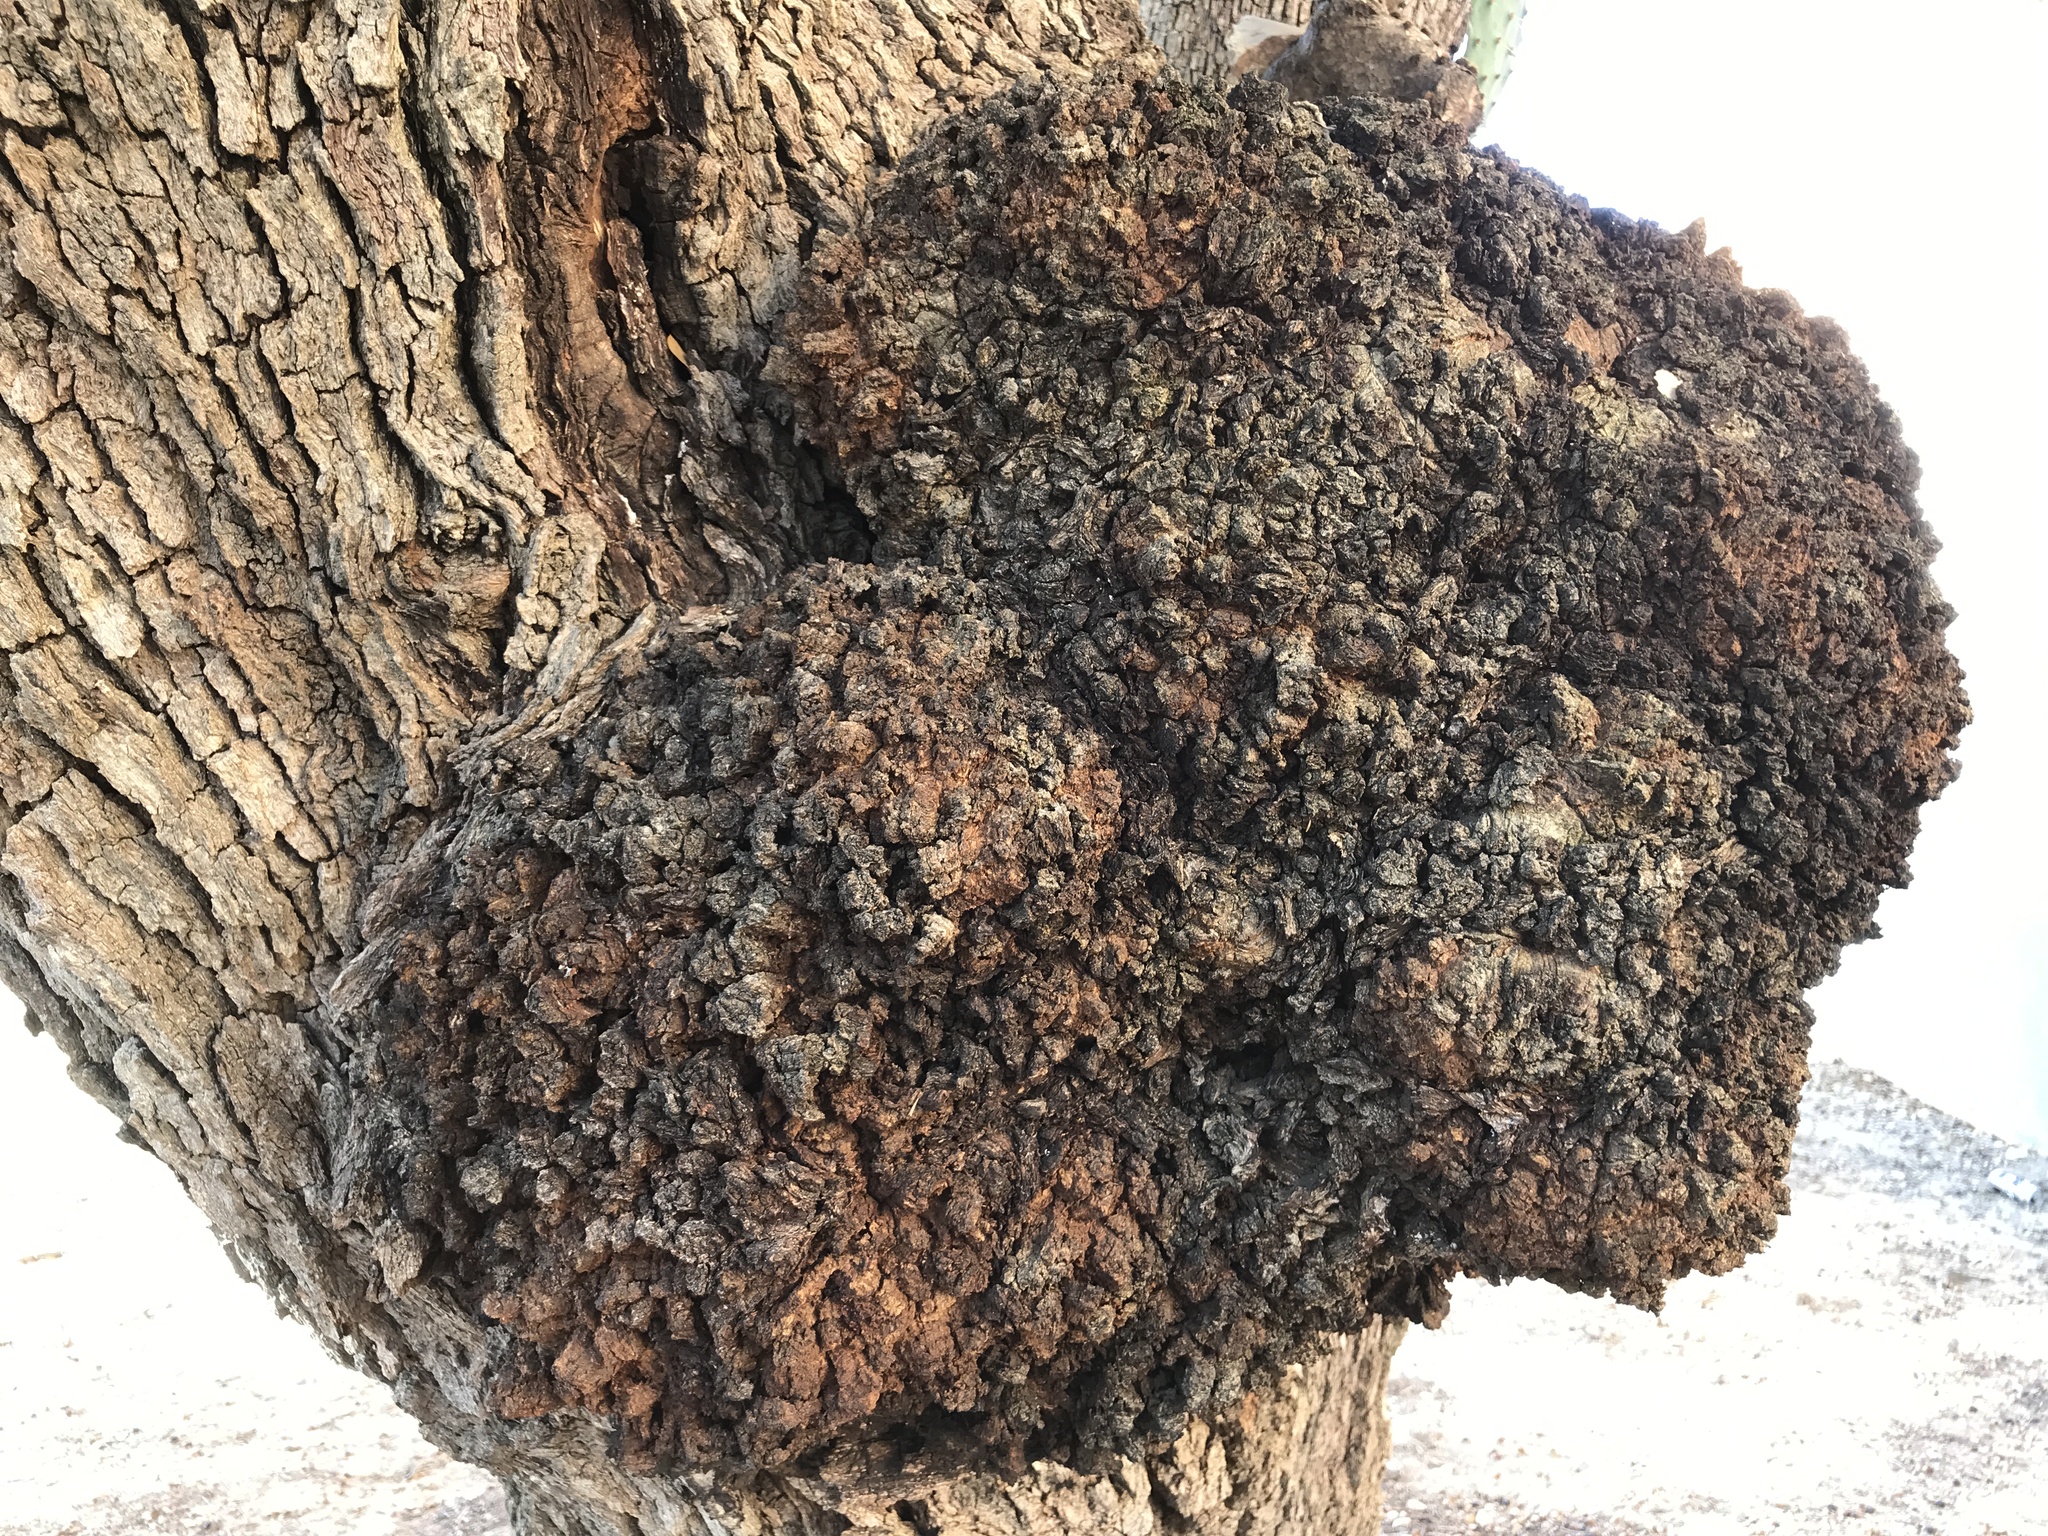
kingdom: Plantae
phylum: Tracheophyta
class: Magnoliopsida
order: Fagales
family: Fagaceae
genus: Quercus
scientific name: Quercus fusiformis
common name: Texas live oak
